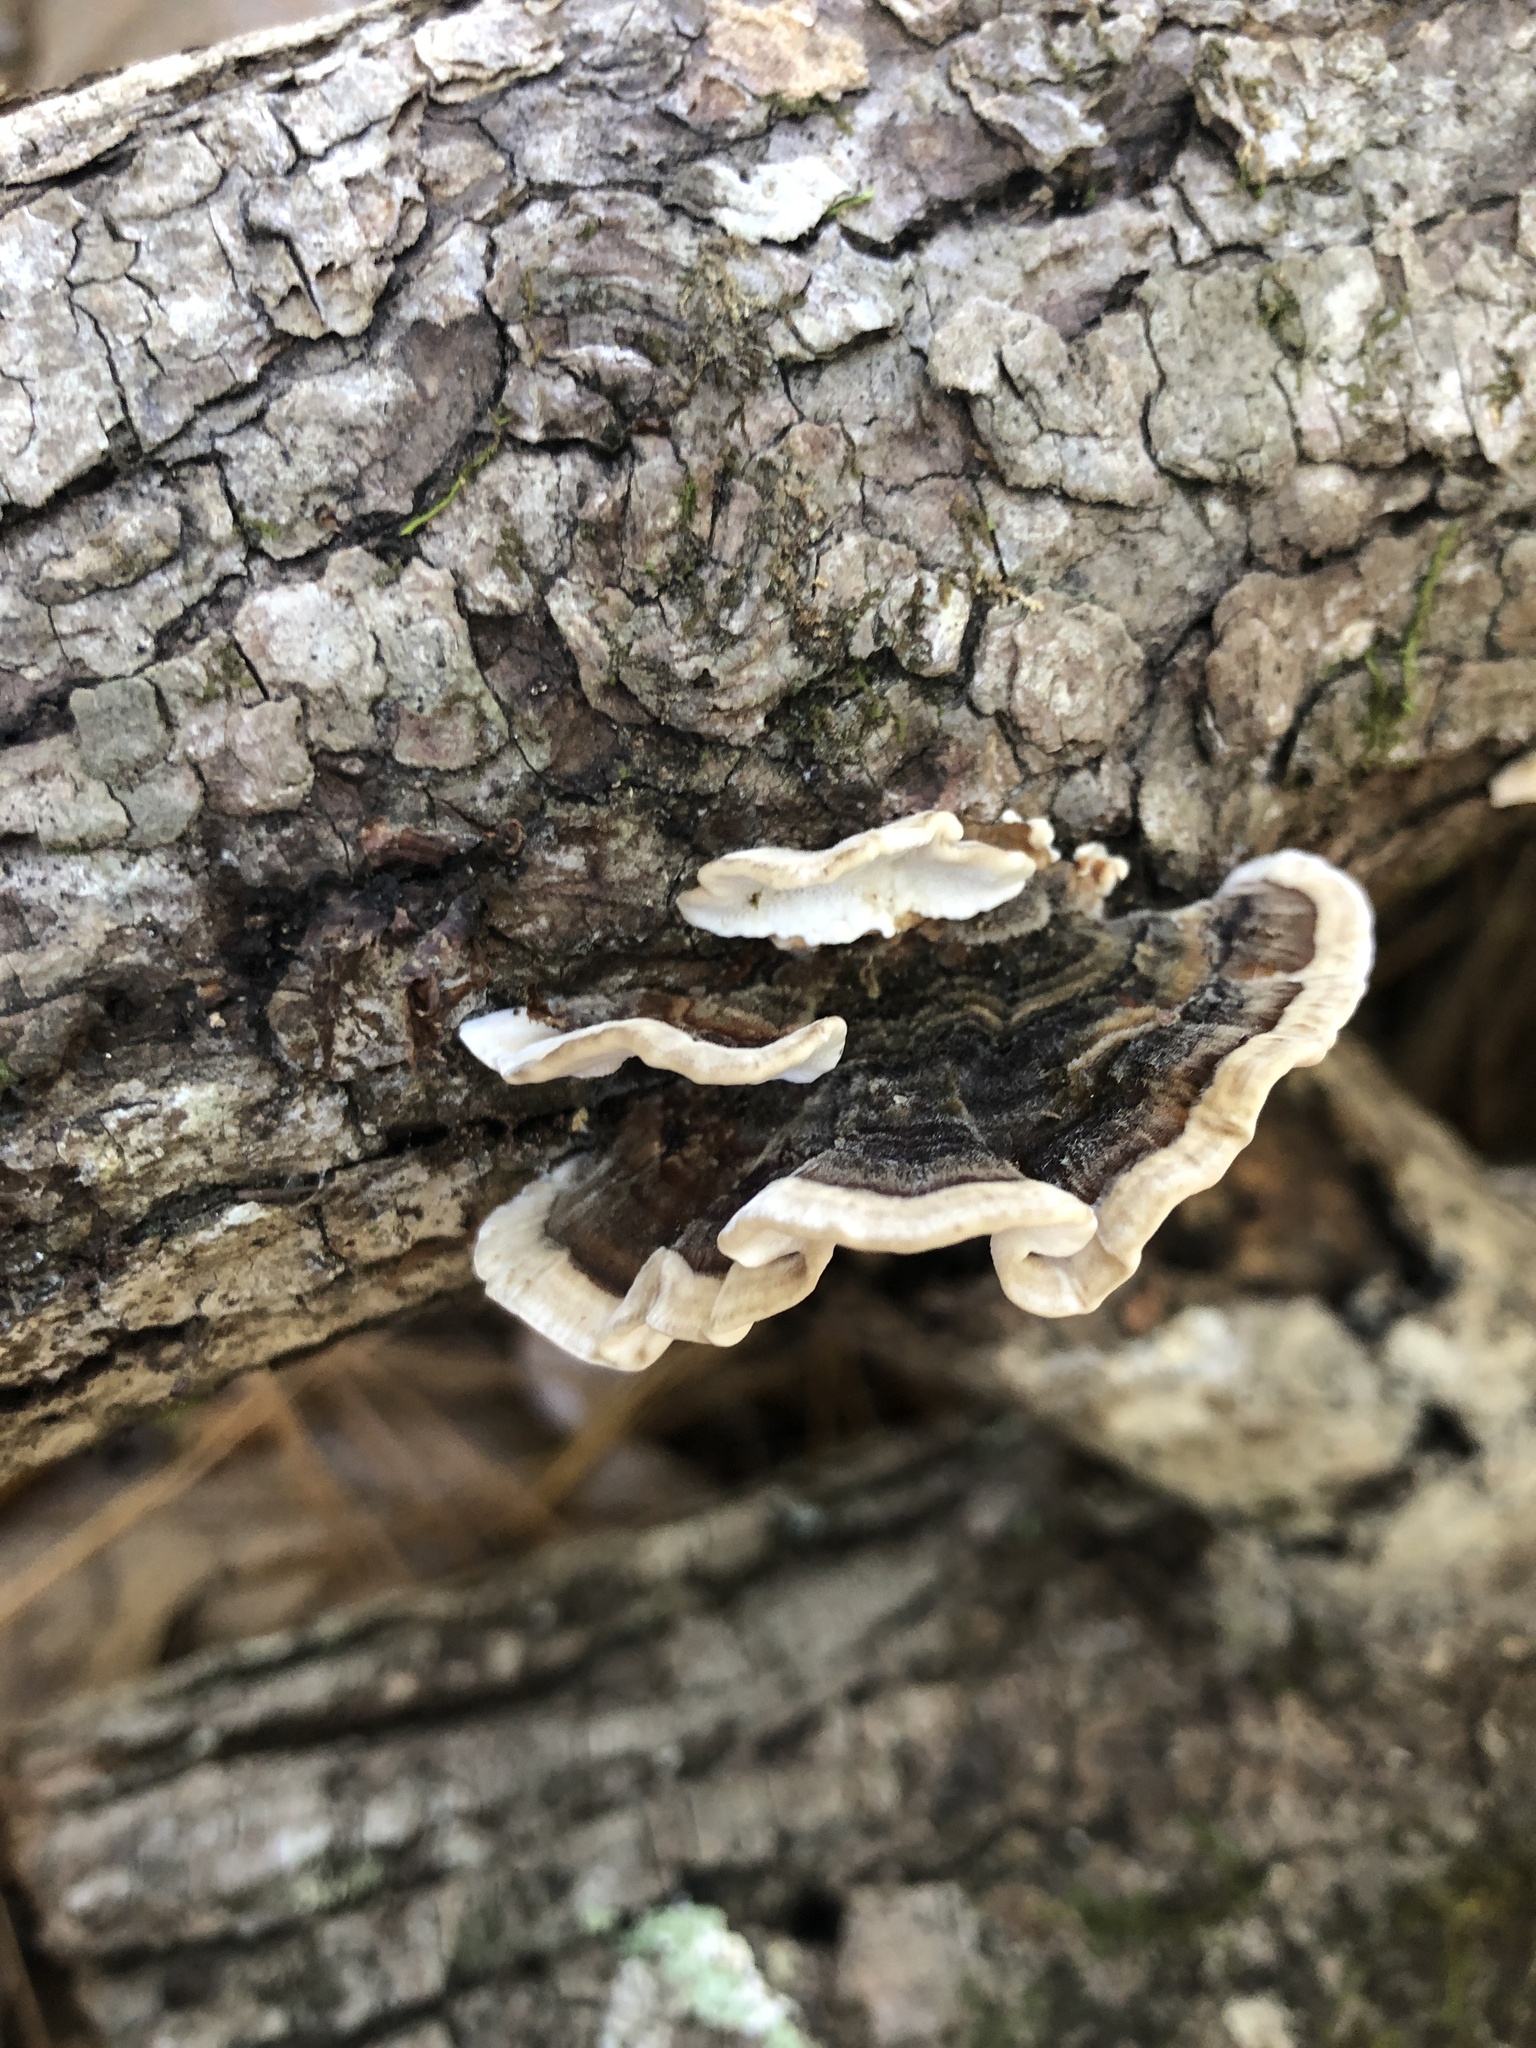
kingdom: Fungi
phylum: Basidiomycota
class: Agaricomycetes
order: Polyporales
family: Polyporaceae
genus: Trametes
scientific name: Trametes versicolor
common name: Turkeytail
